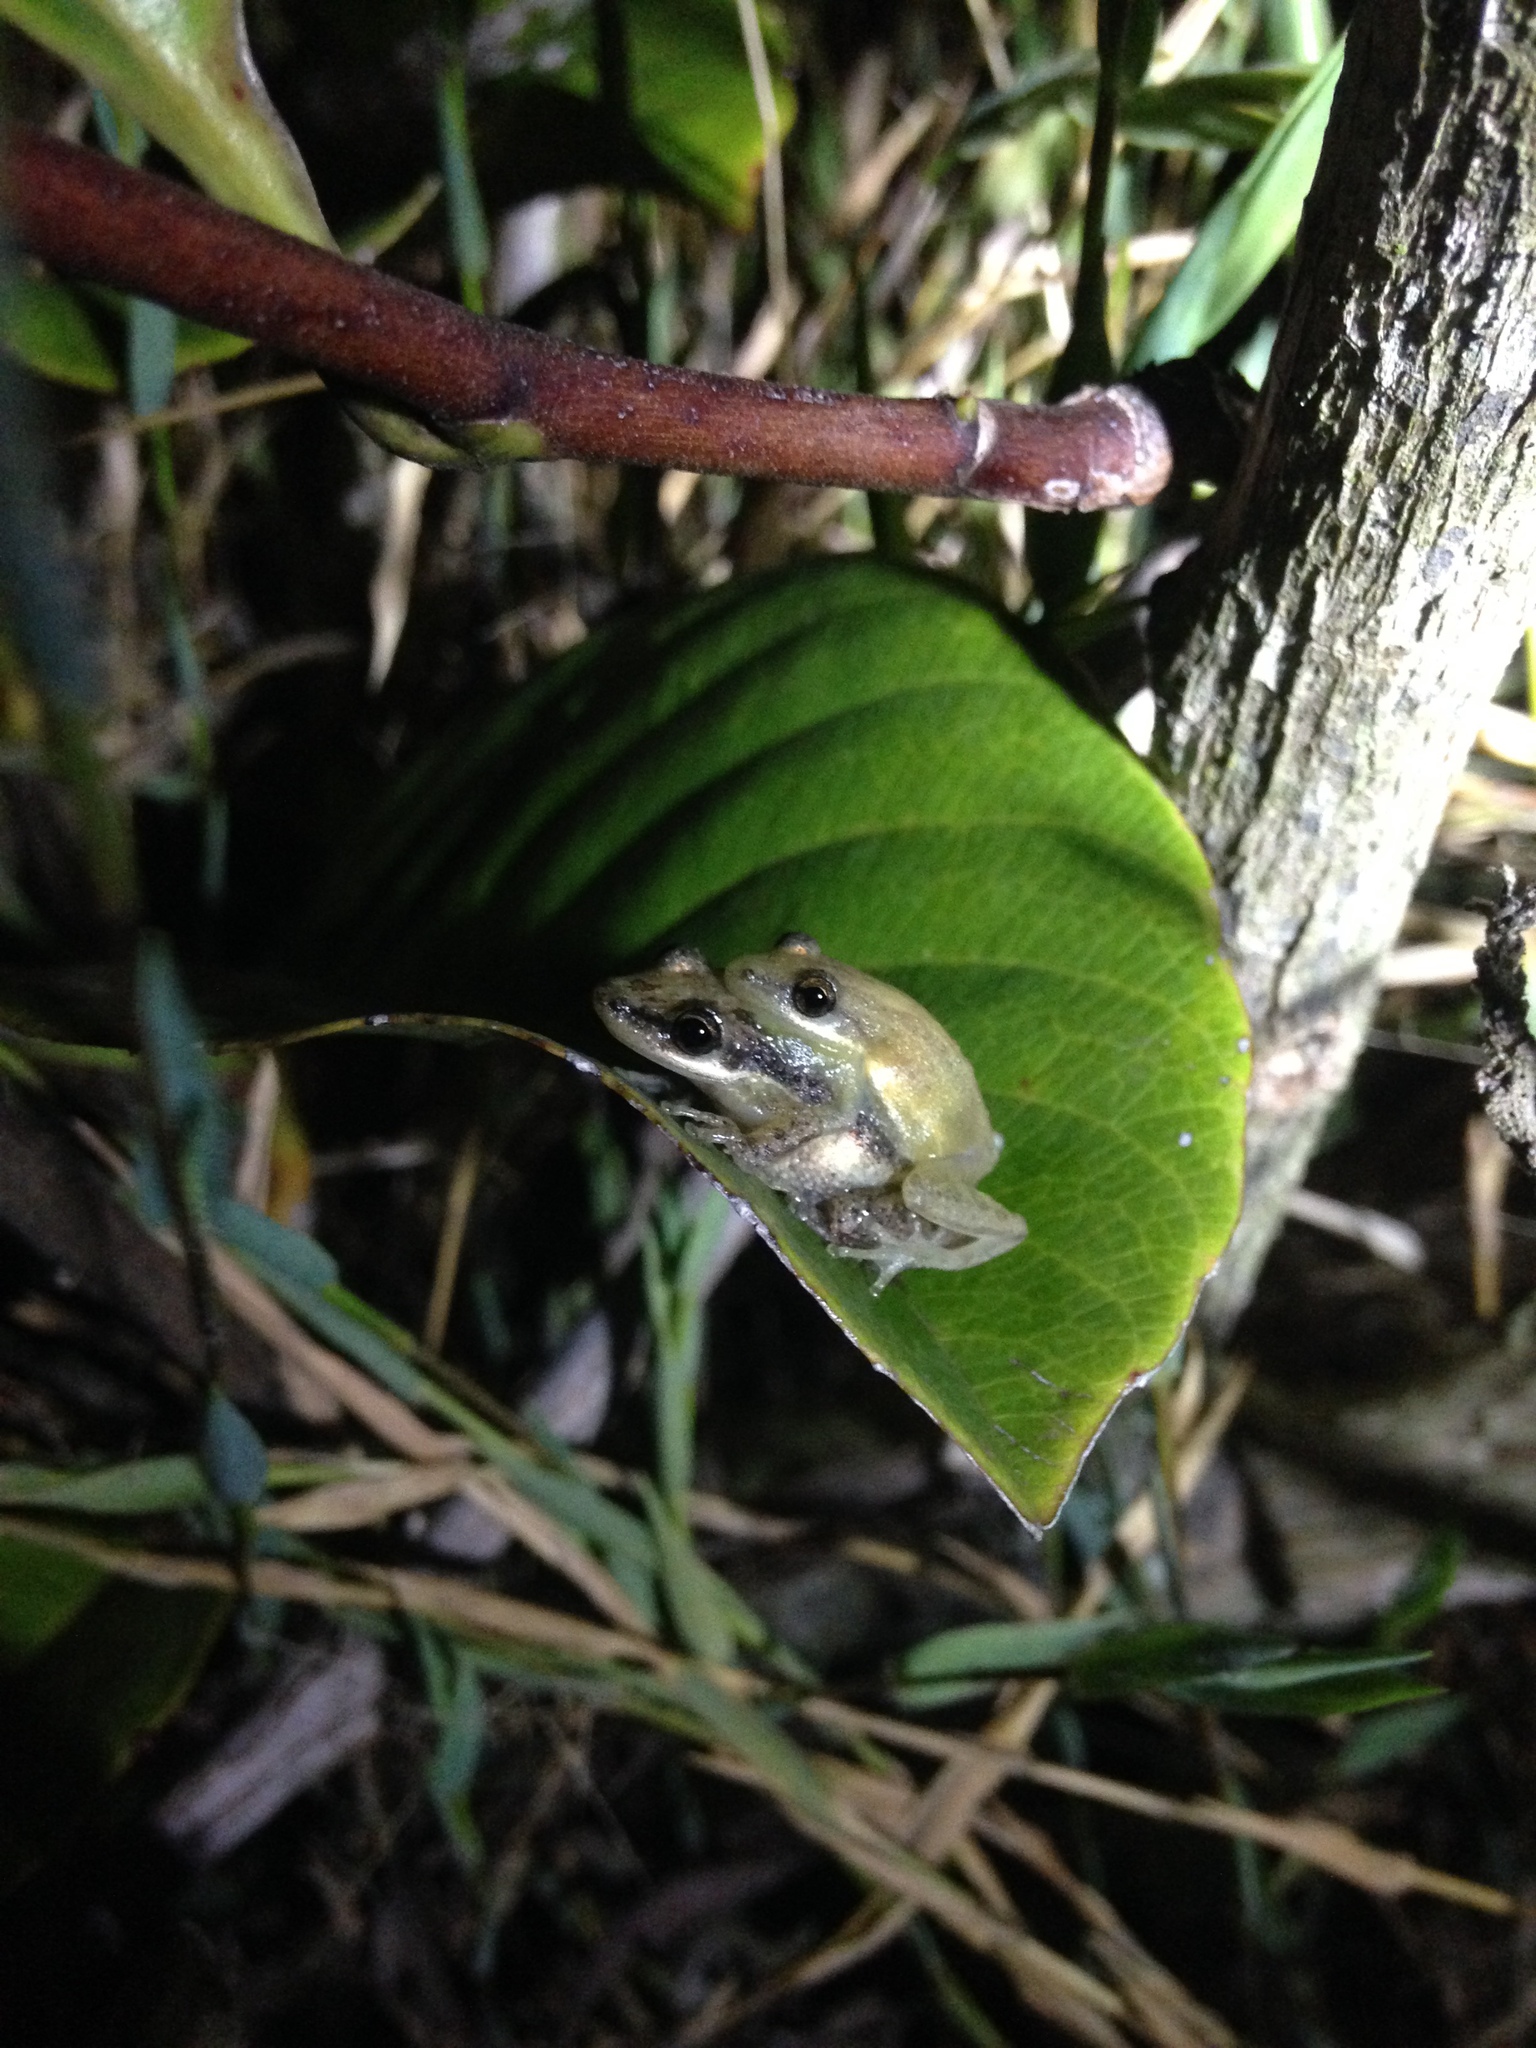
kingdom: Animalia
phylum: Chordata
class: Amphibia
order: Anura
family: Hylidae
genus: Scinax
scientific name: Scinax fuscomarginatus
